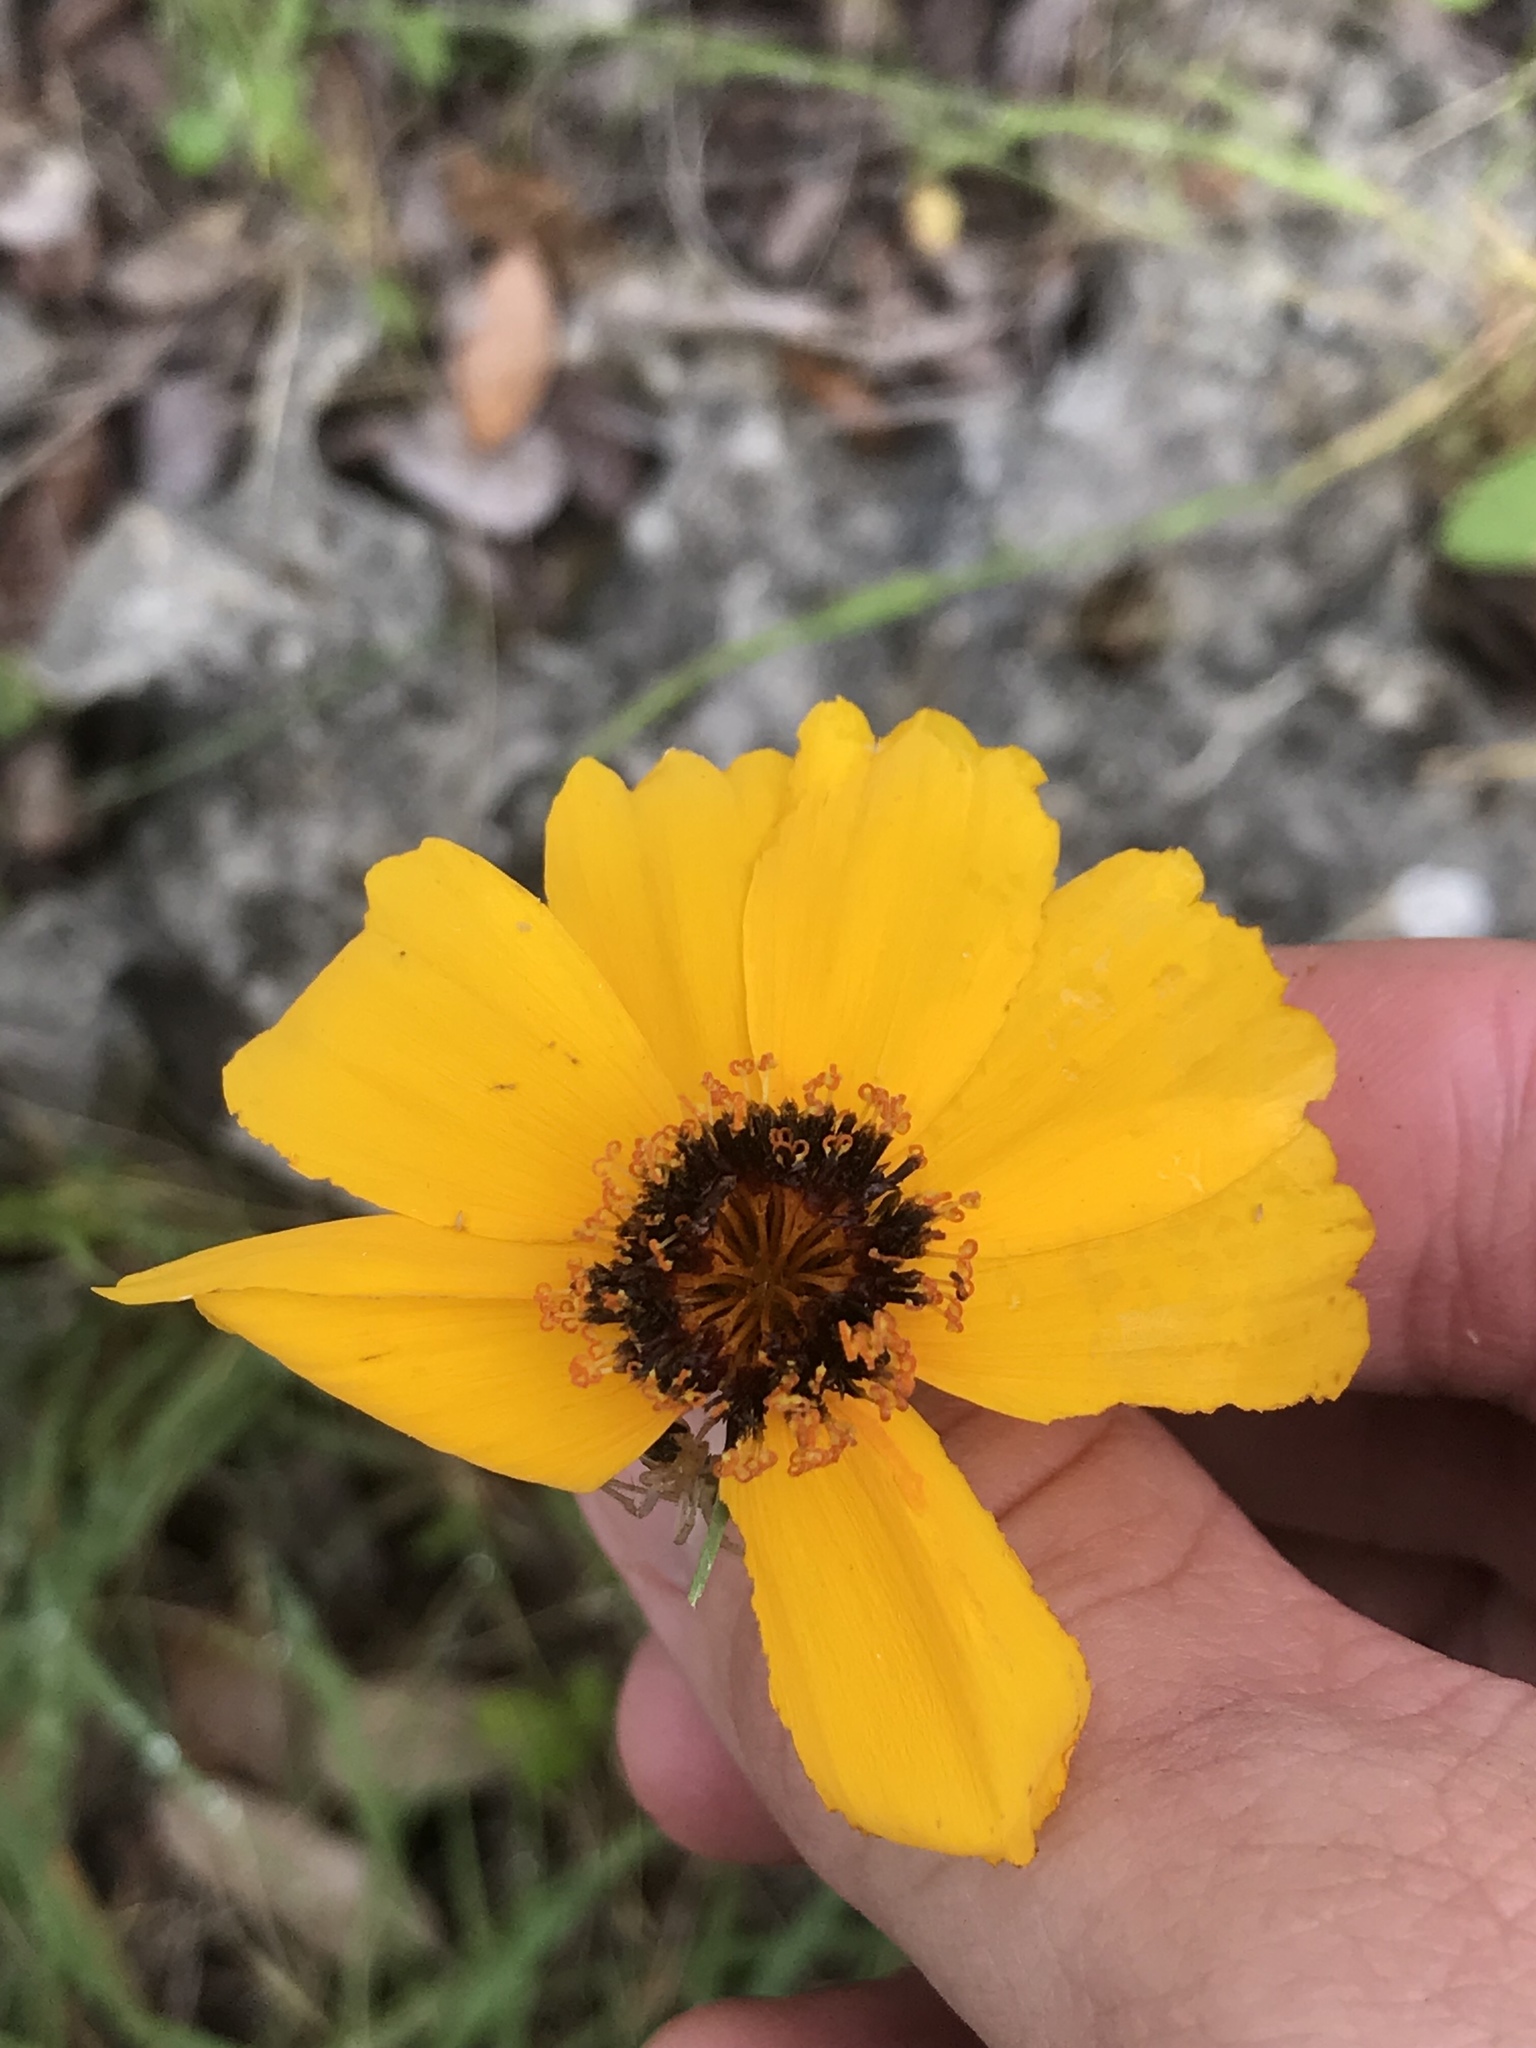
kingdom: Plantae
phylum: Tracheophyta
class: Magnoliopsida
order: Asterales
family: Asteraceae
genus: Thelesperma
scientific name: Thelesperma filifolium
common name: Stiff greenthread
